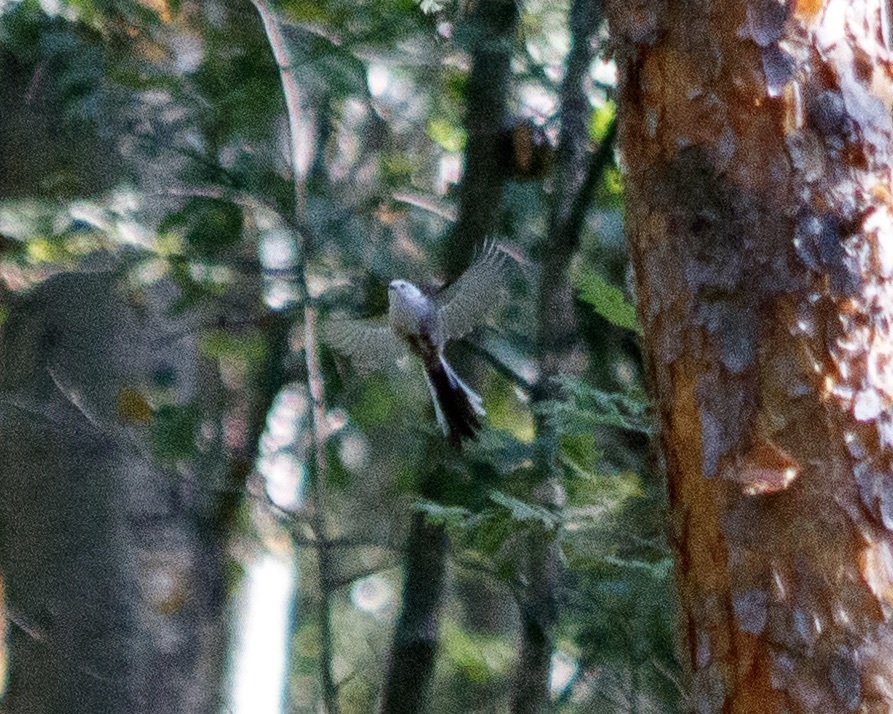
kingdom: Animalia
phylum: Chordata
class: Aves
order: Passeriformes
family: Aegithalidae
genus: Aegithalos
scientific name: Aegithalos caudatus
